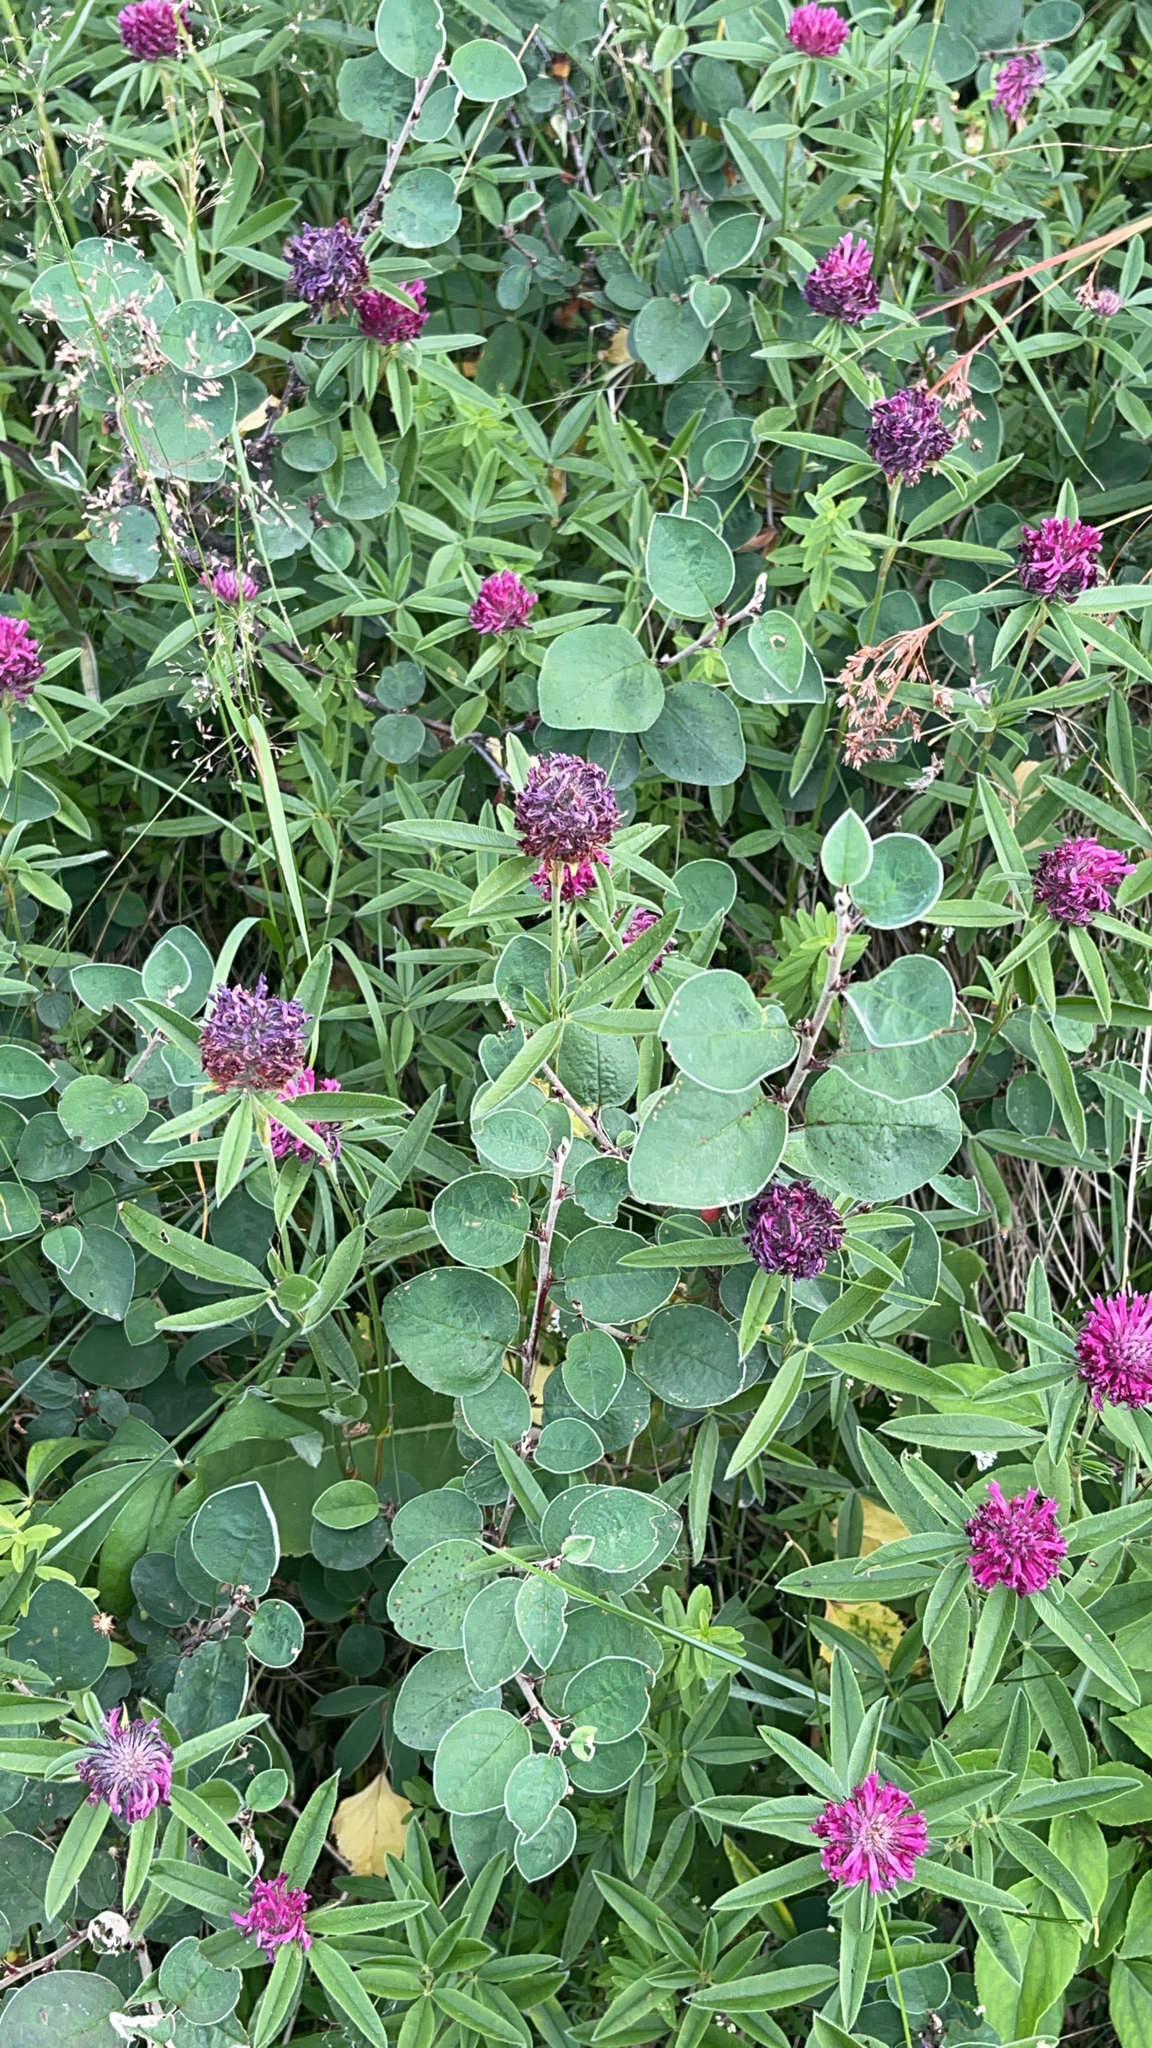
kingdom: Plantae
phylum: Tracheophyta
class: Magnoliopsida
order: Fabales
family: Fabaceae
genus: Trifolium
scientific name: Trifolium alpestre
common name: Owl-head clover
